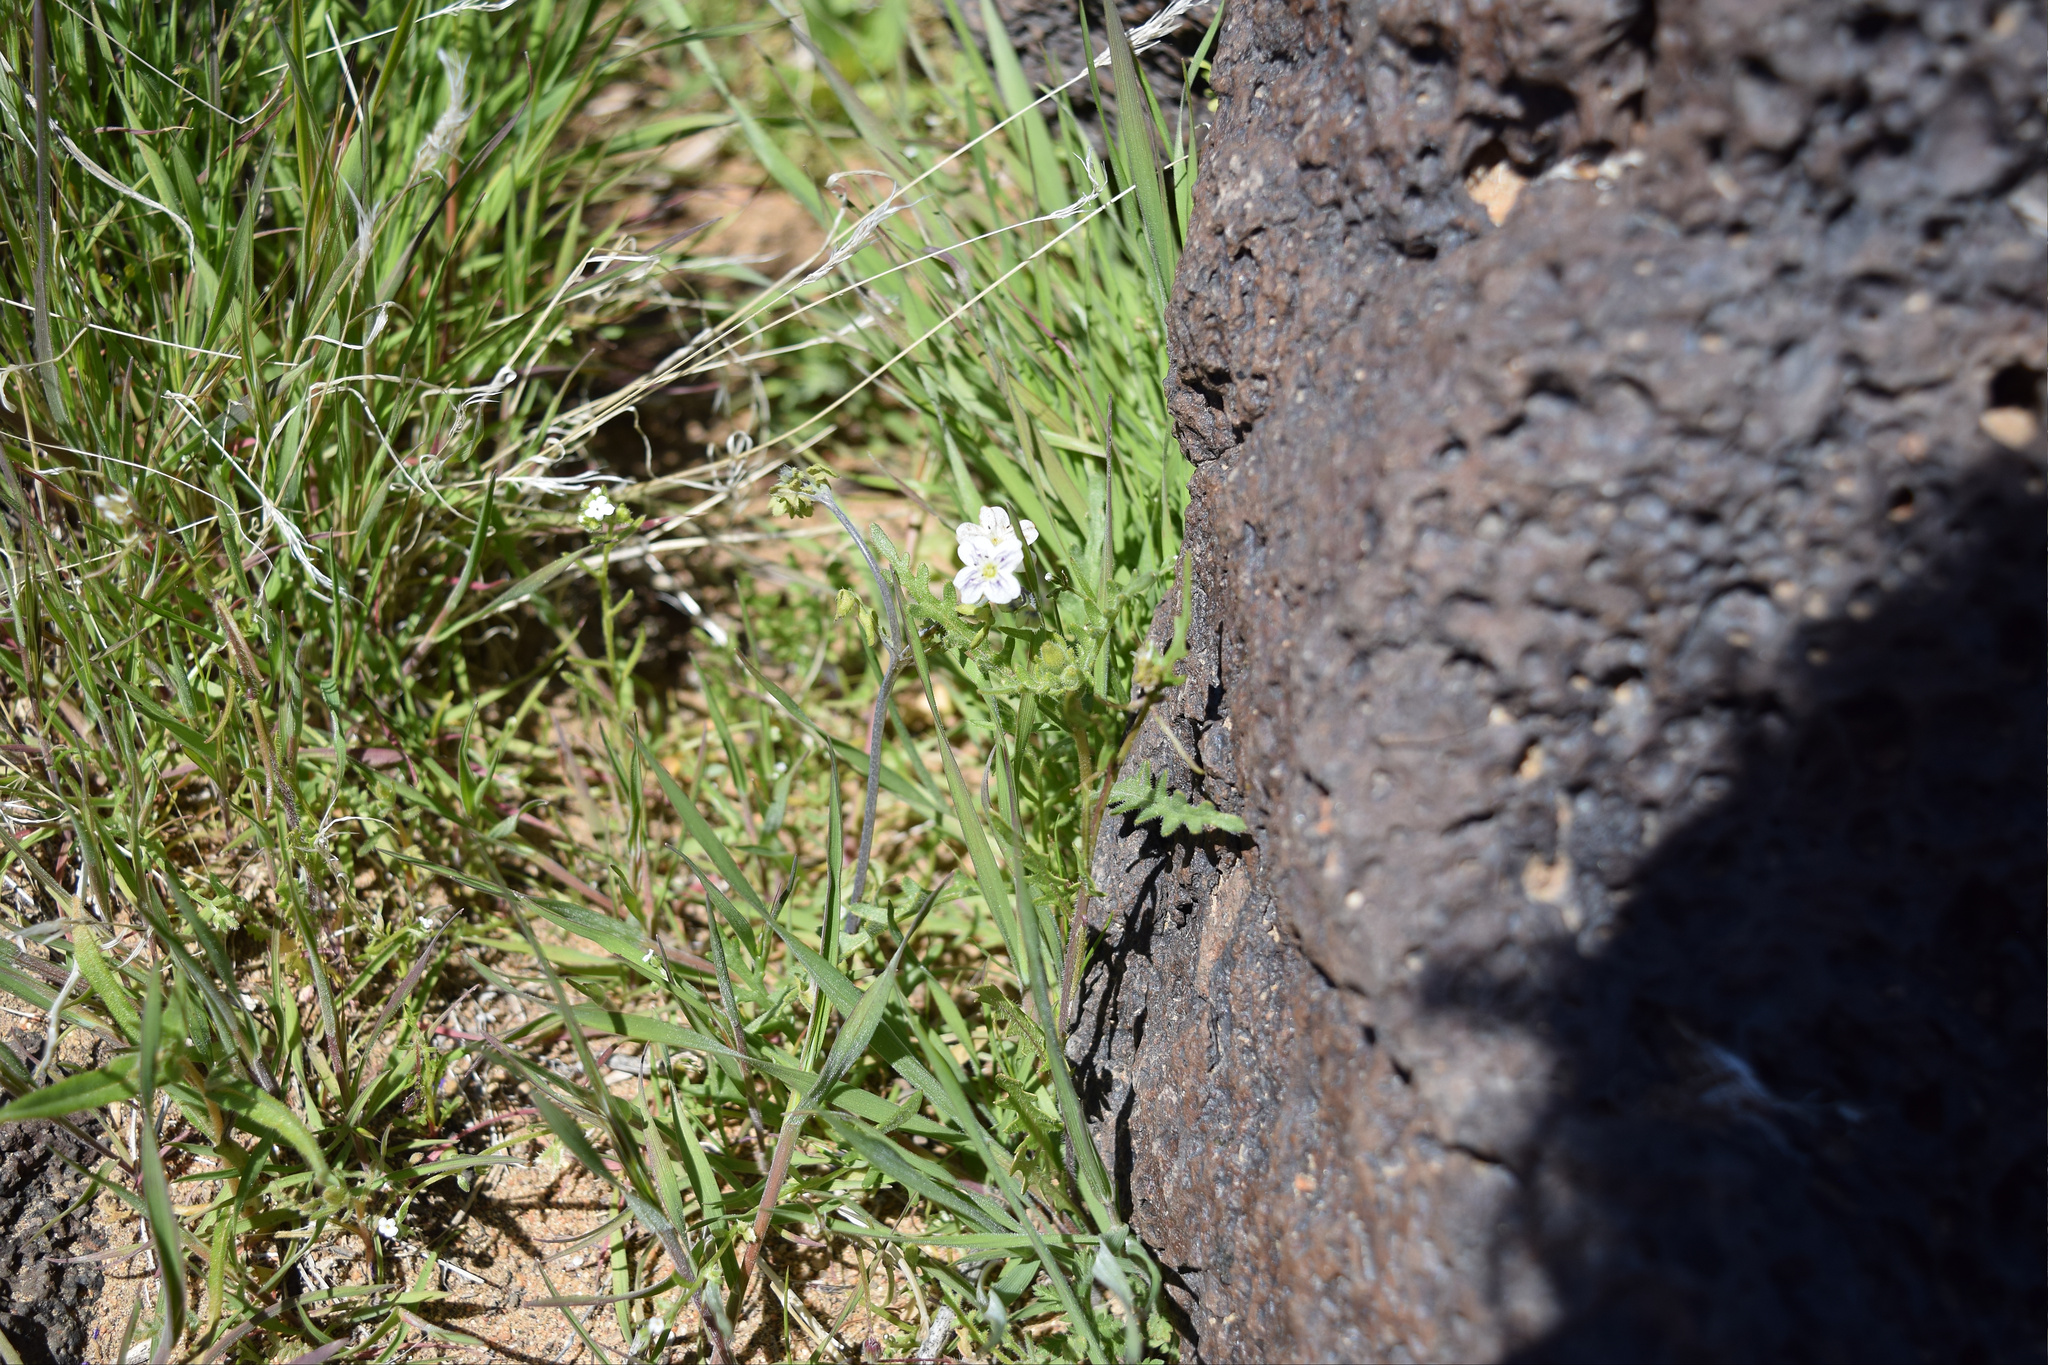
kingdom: Plantae
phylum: Tracheophyta
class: Magnoliopsida
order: Boraginales
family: Hydrophyllaceae
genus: Pholistoma
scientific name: Pholistoma membranaceum
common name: White fiesta-flower
